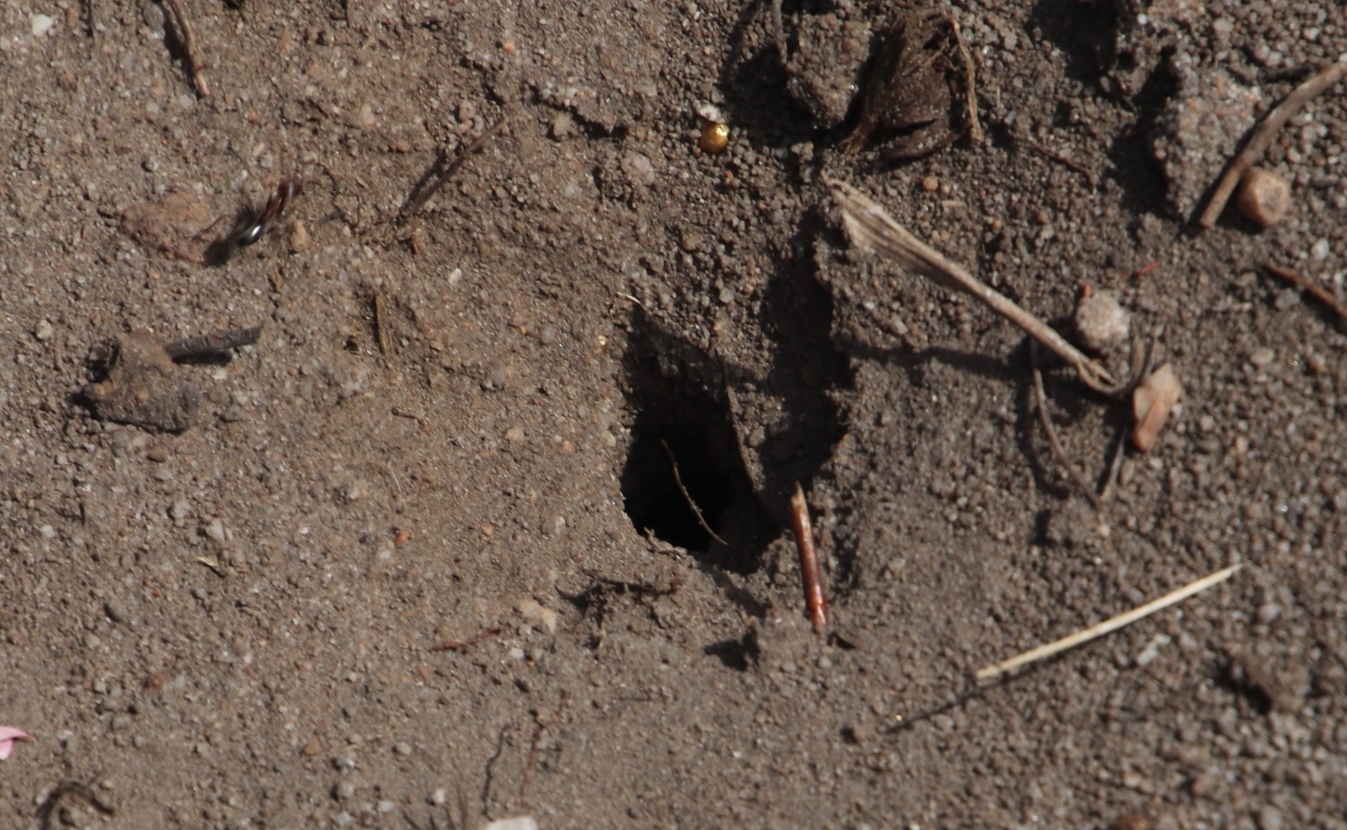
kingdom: Animalia
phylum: Arthropoda
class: Insecta
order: Hymenoptera
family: Formicidae
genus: Anoplolepis
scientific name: Anoplolepis steingroeveri
